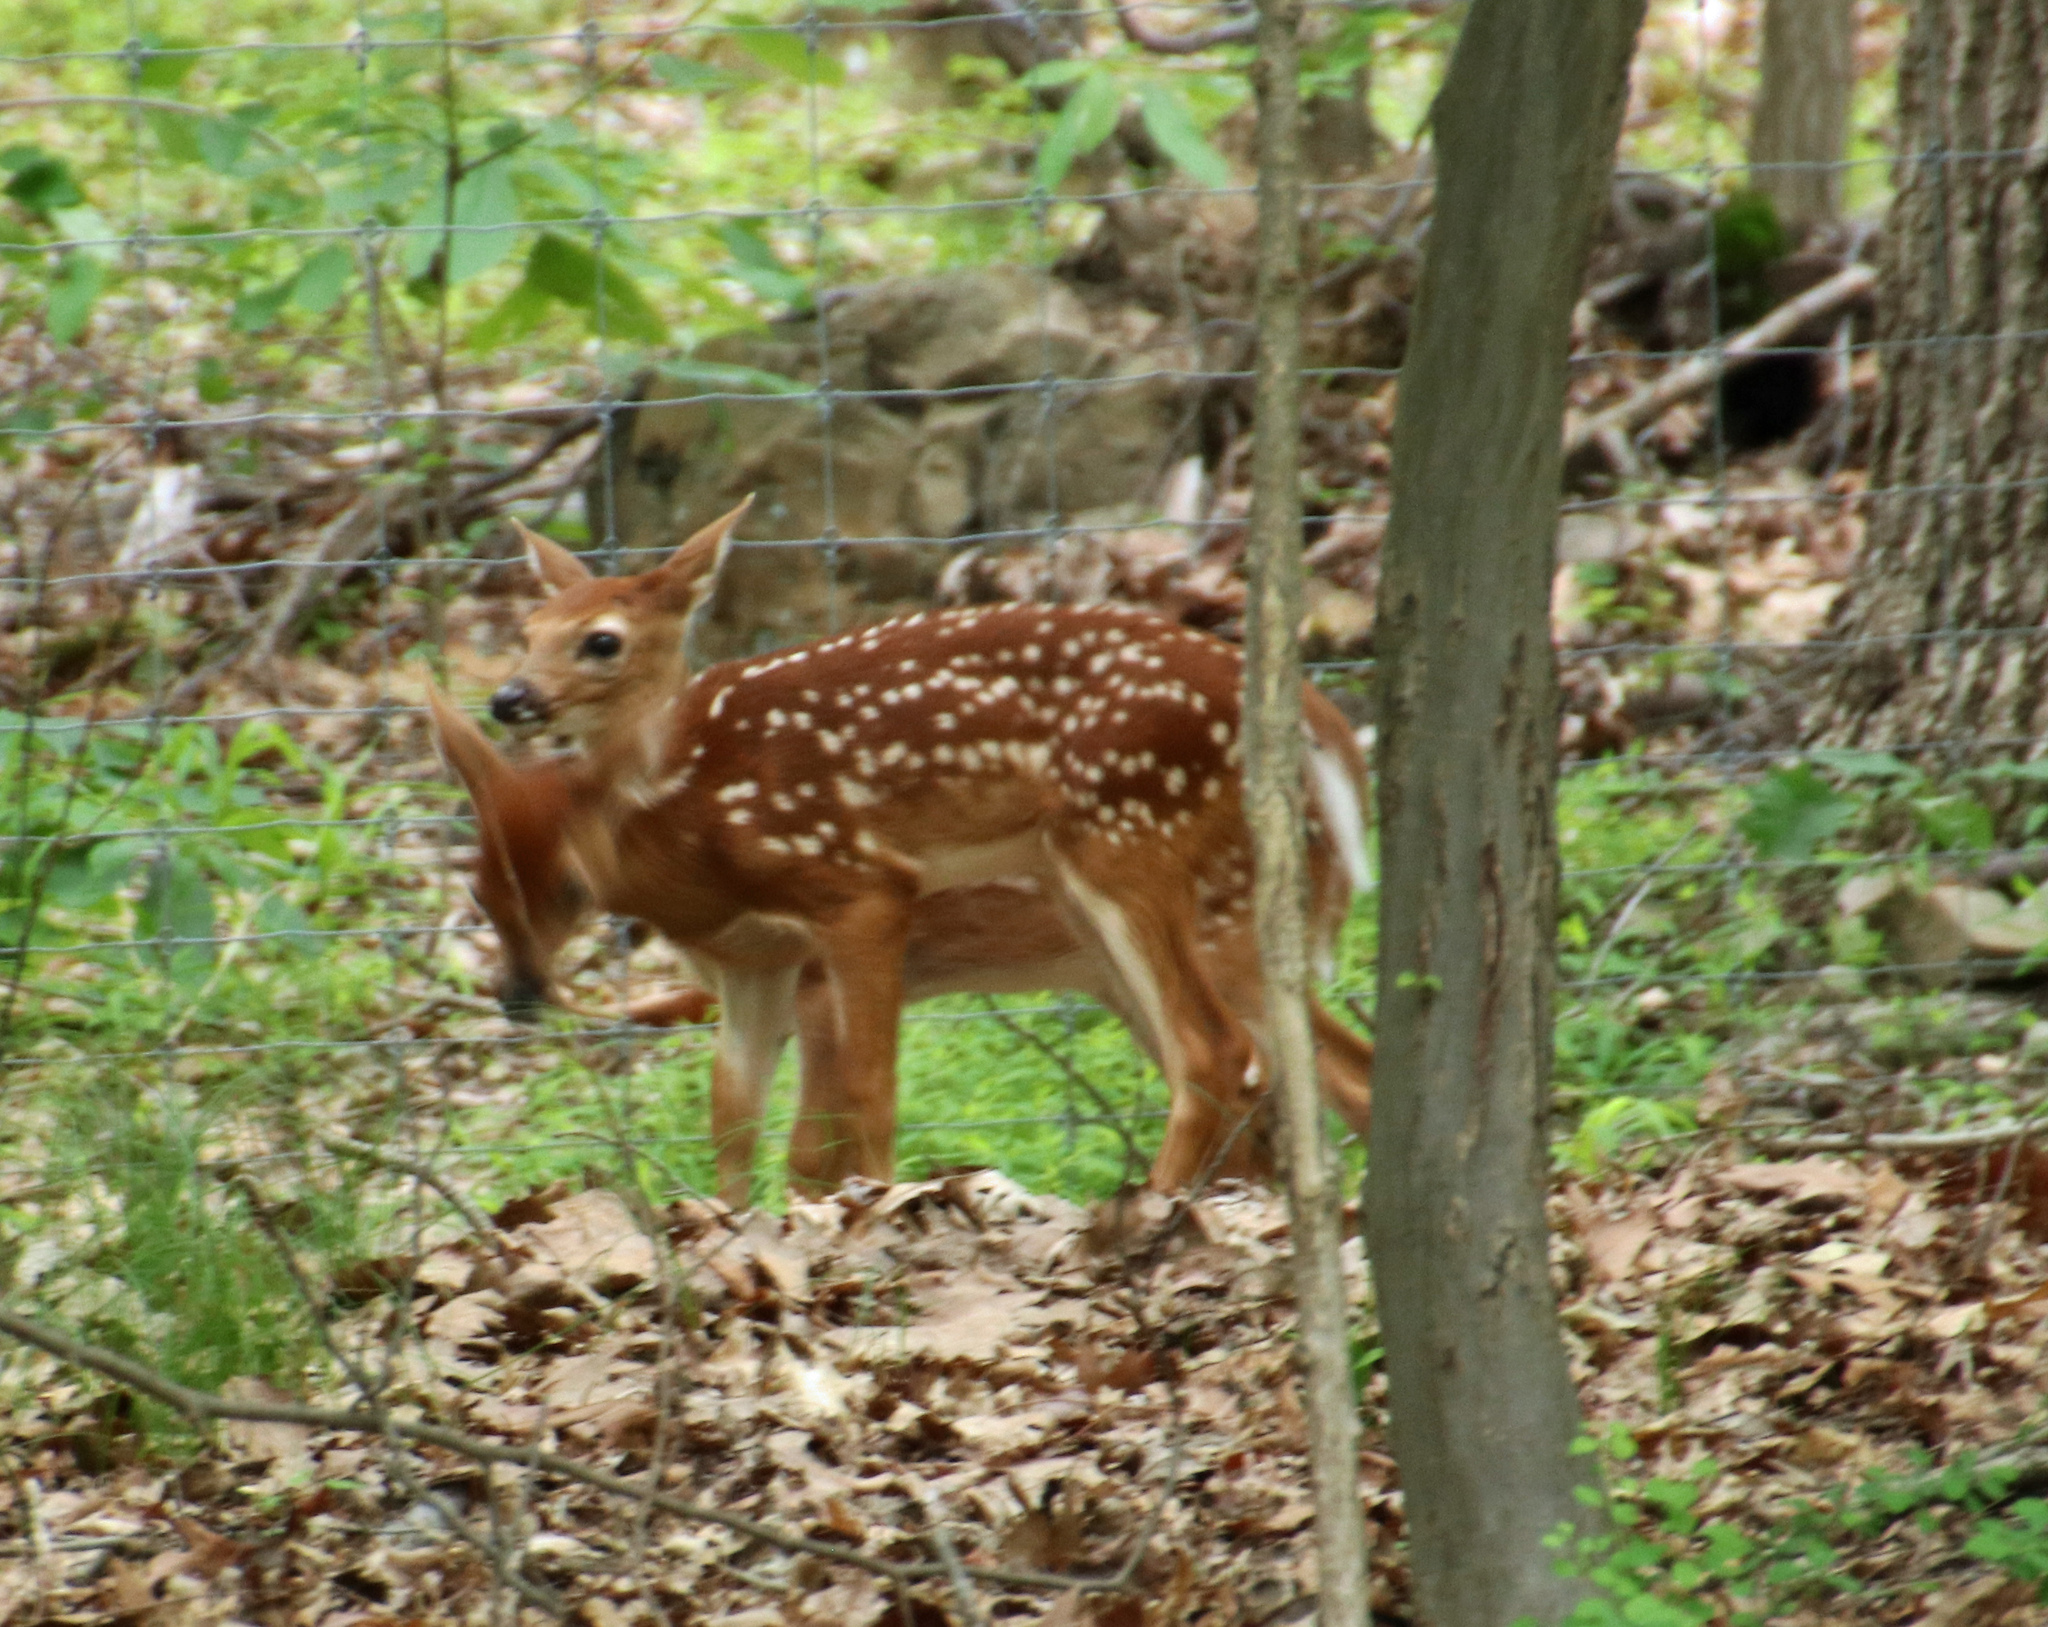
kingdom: Animalia
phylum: Chordata
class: Mammalia
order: Artiodactyla
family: Cervidae
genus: Odocoileus
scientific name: Odocoileus virginianus
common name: White-tailed deer
